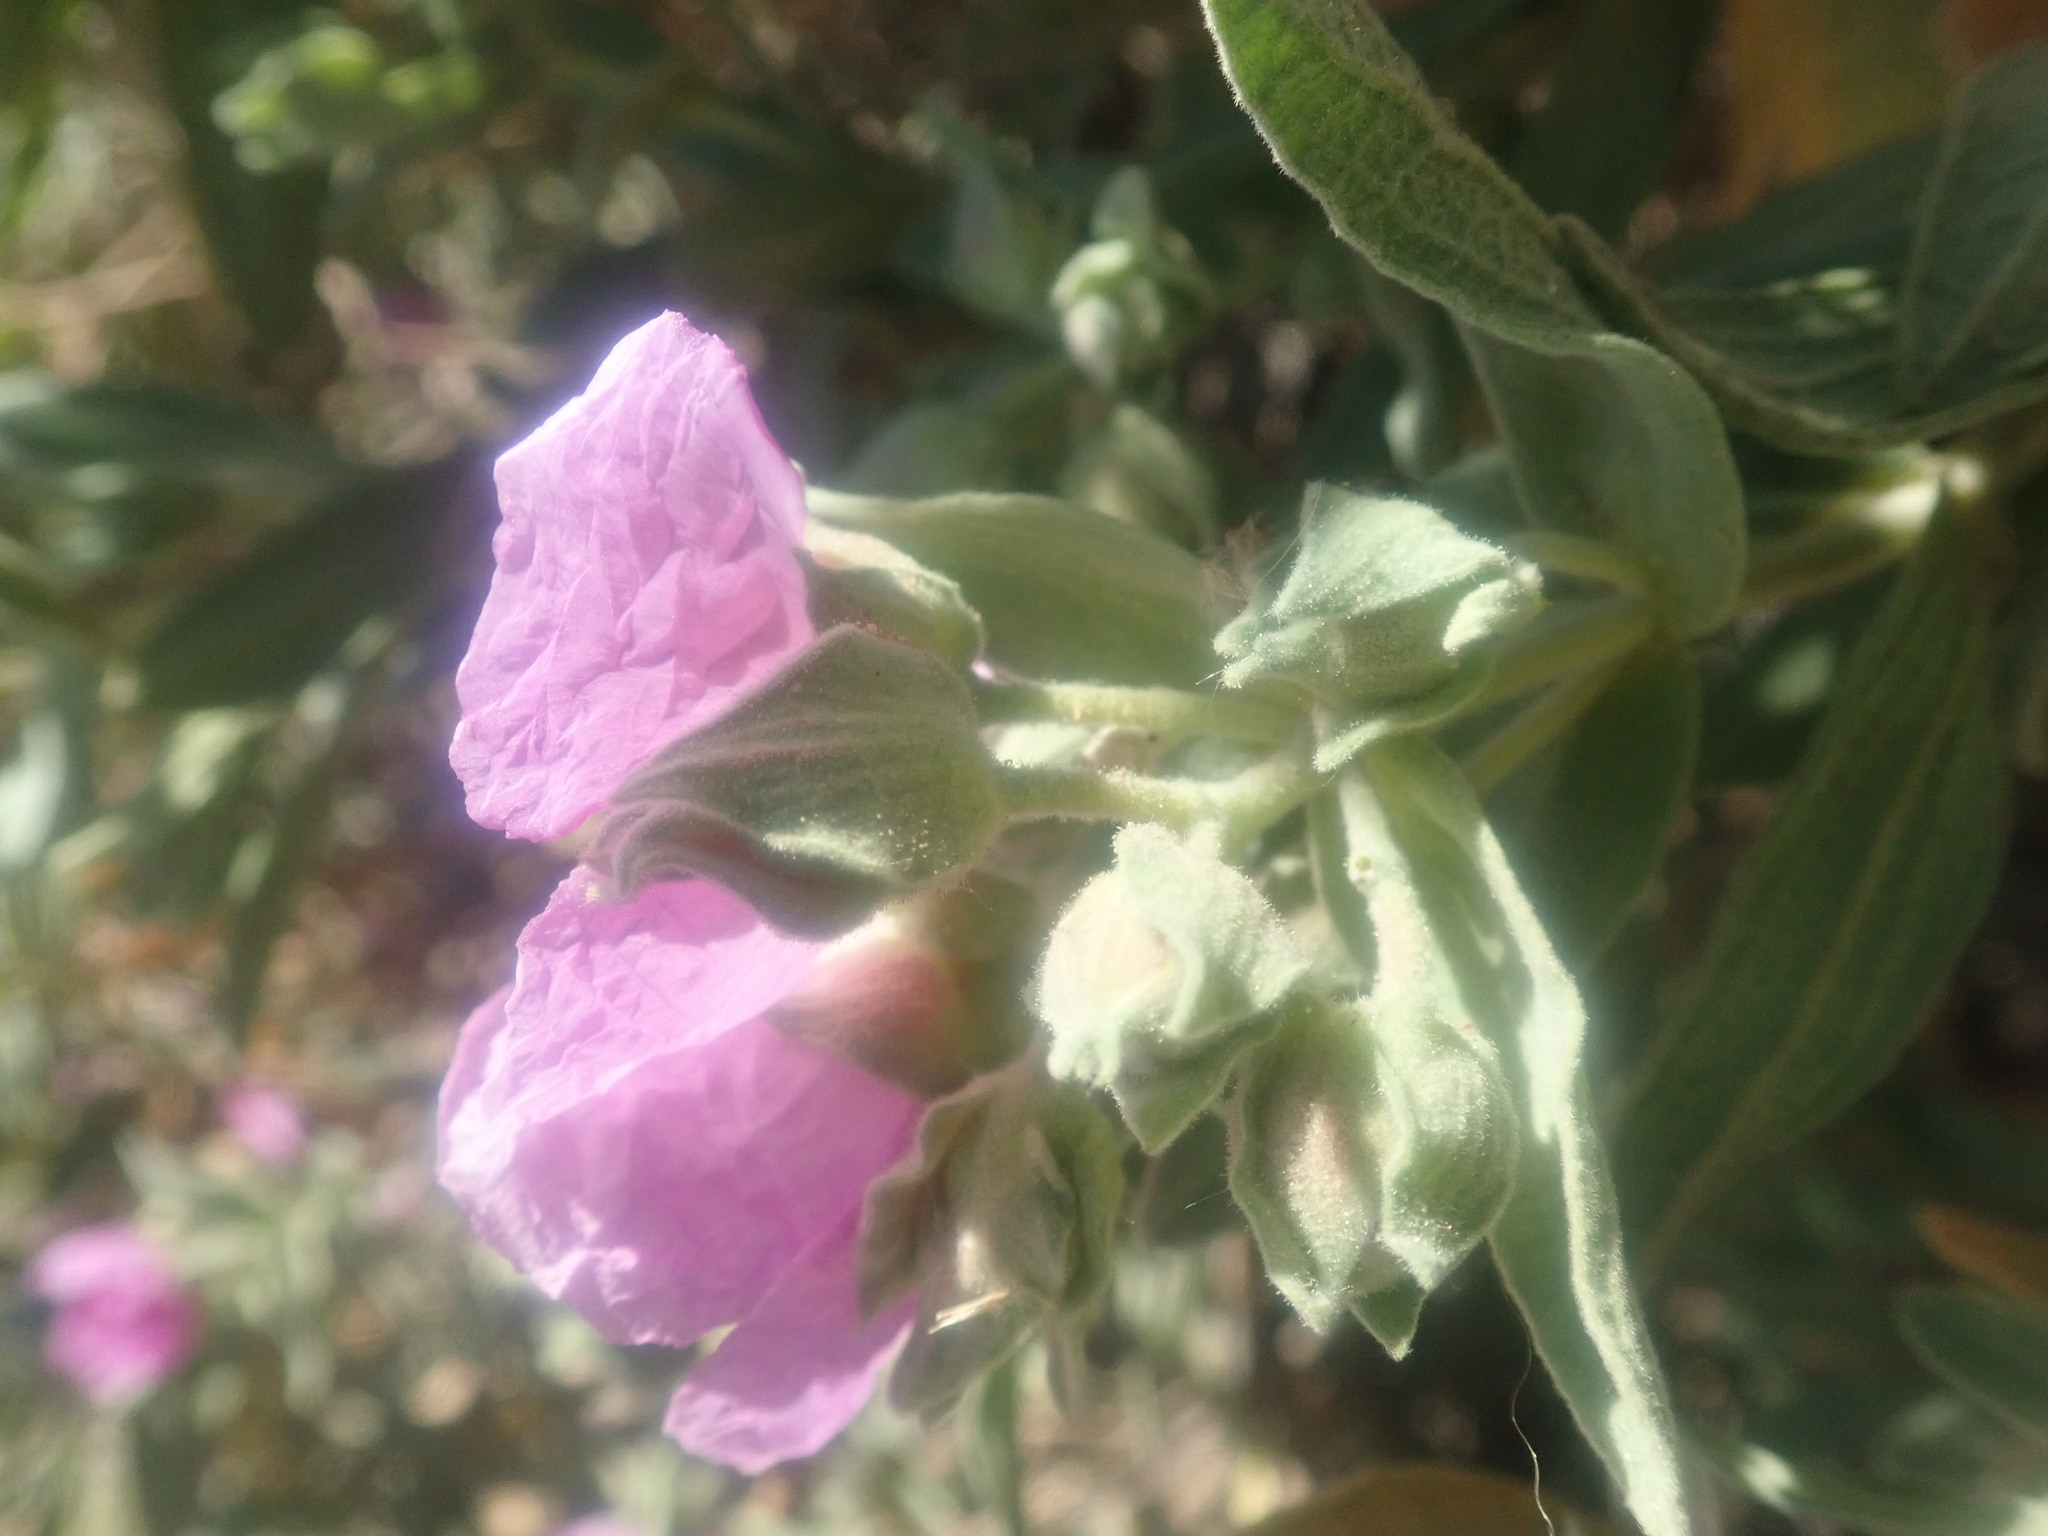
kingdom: Plantae
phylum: Tracheophyta
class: Magnoliopsida
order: Malvales
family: Cistaceae
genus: Cistus
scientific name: Cistus albidus
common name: White-leaf rock-rose
